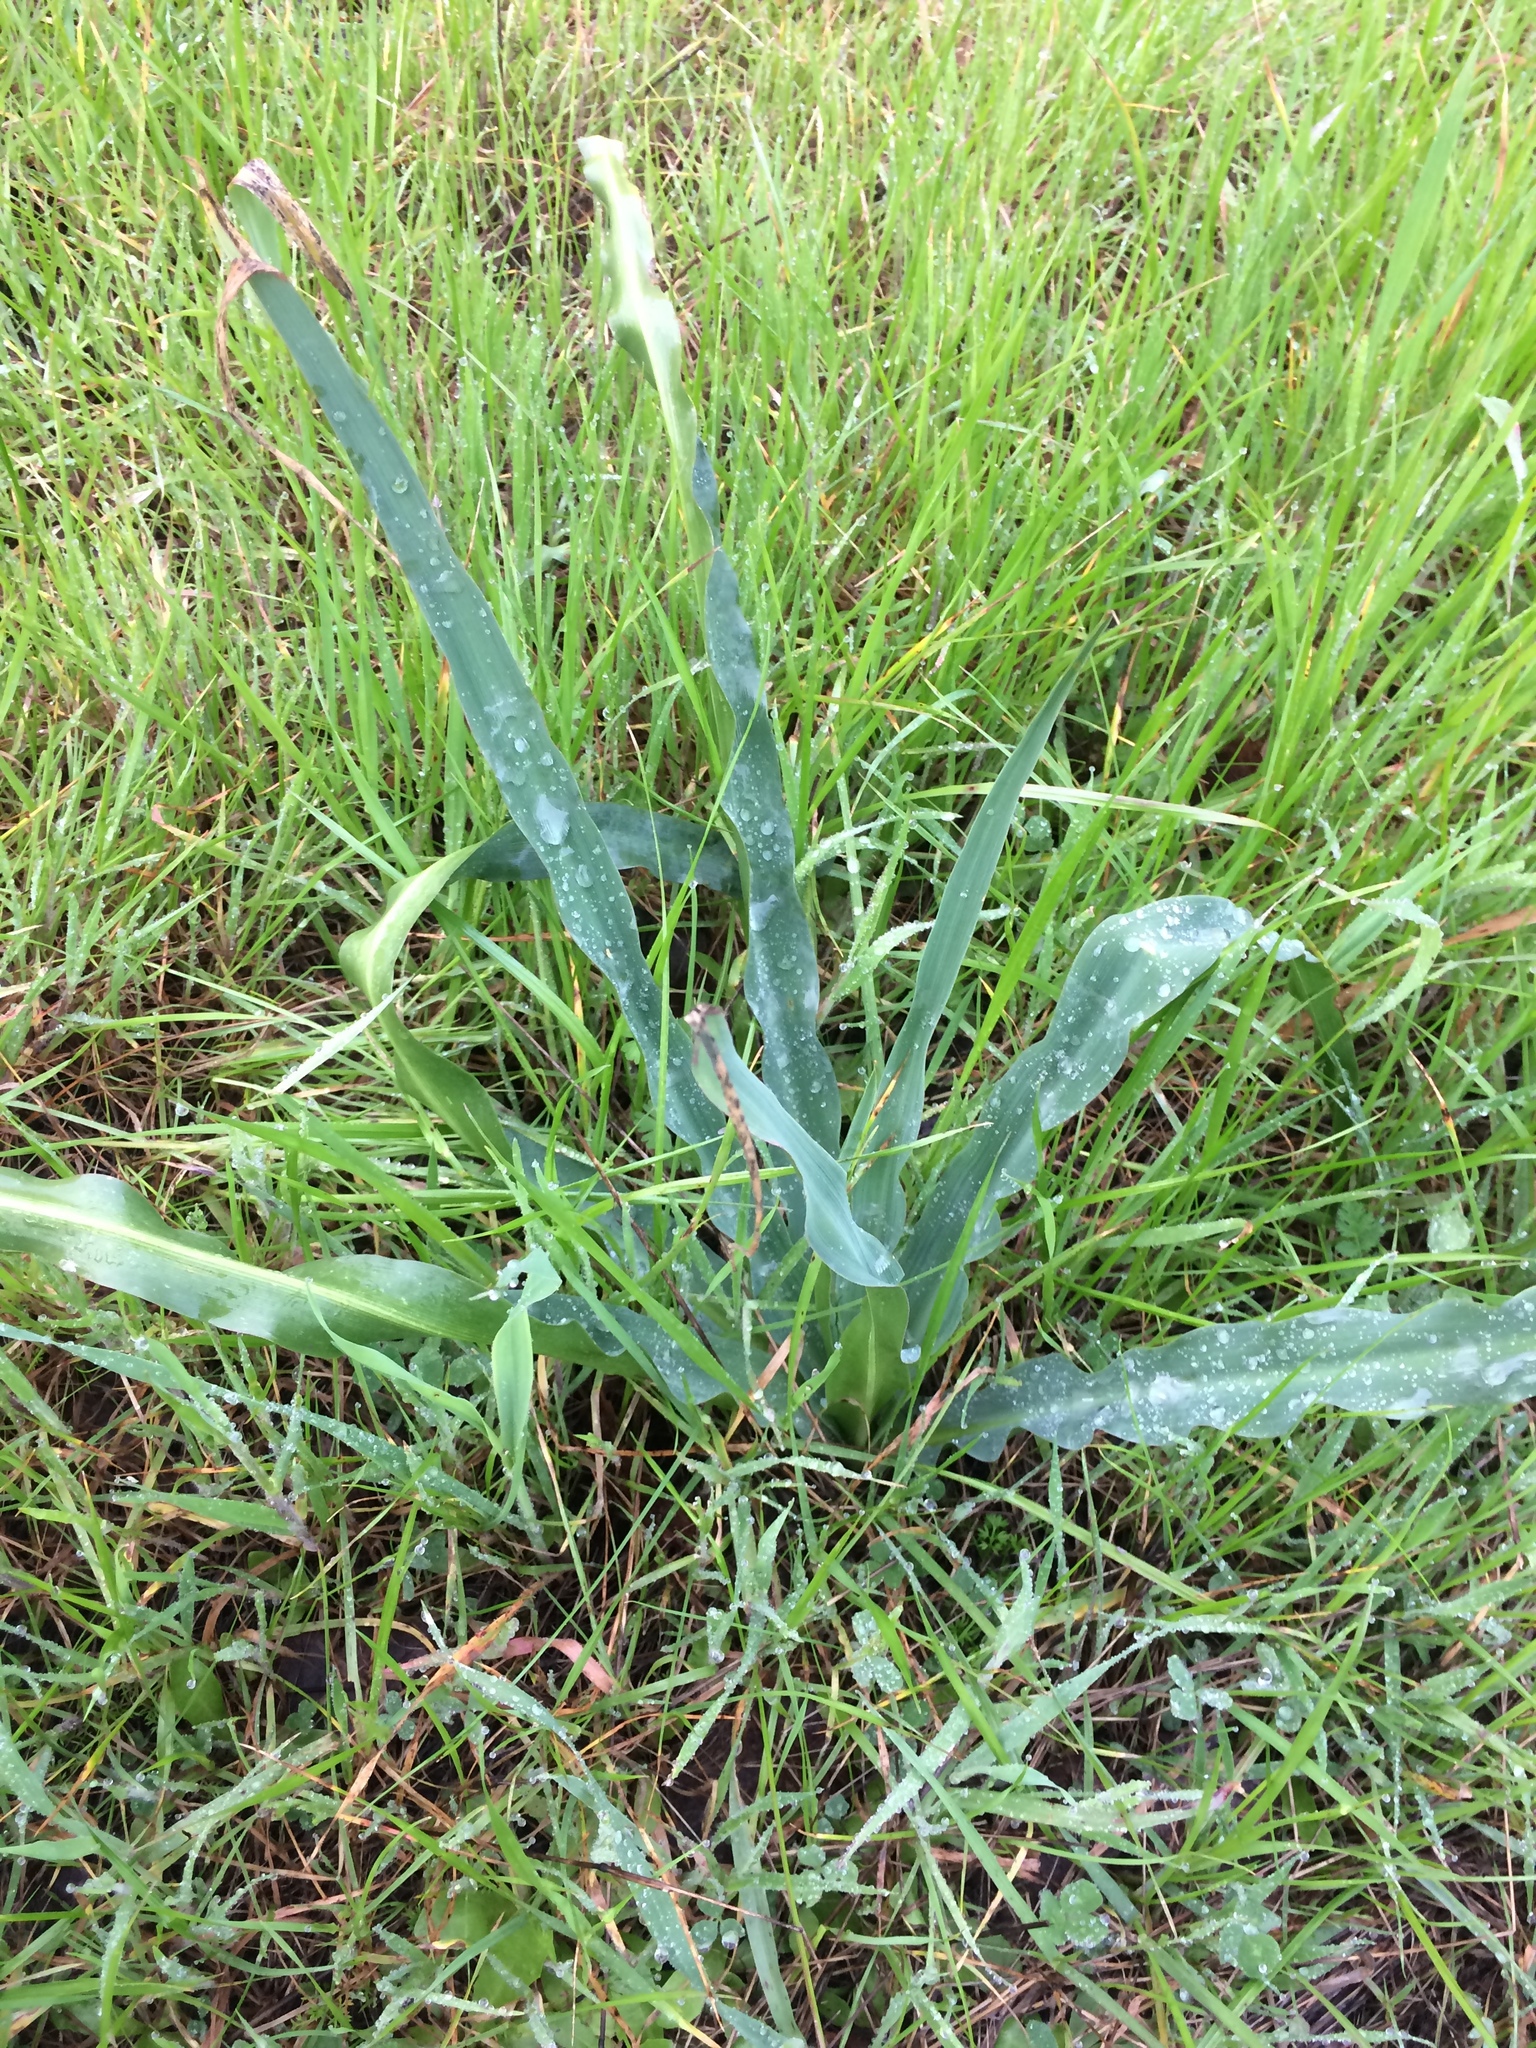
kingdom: Plantae
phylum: Tracheophyta
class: Liliopsida
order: Asparagales
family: Asparagaceae
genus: Chlorogalum
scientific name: Chlorogalum pomeridianum
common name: Amole
